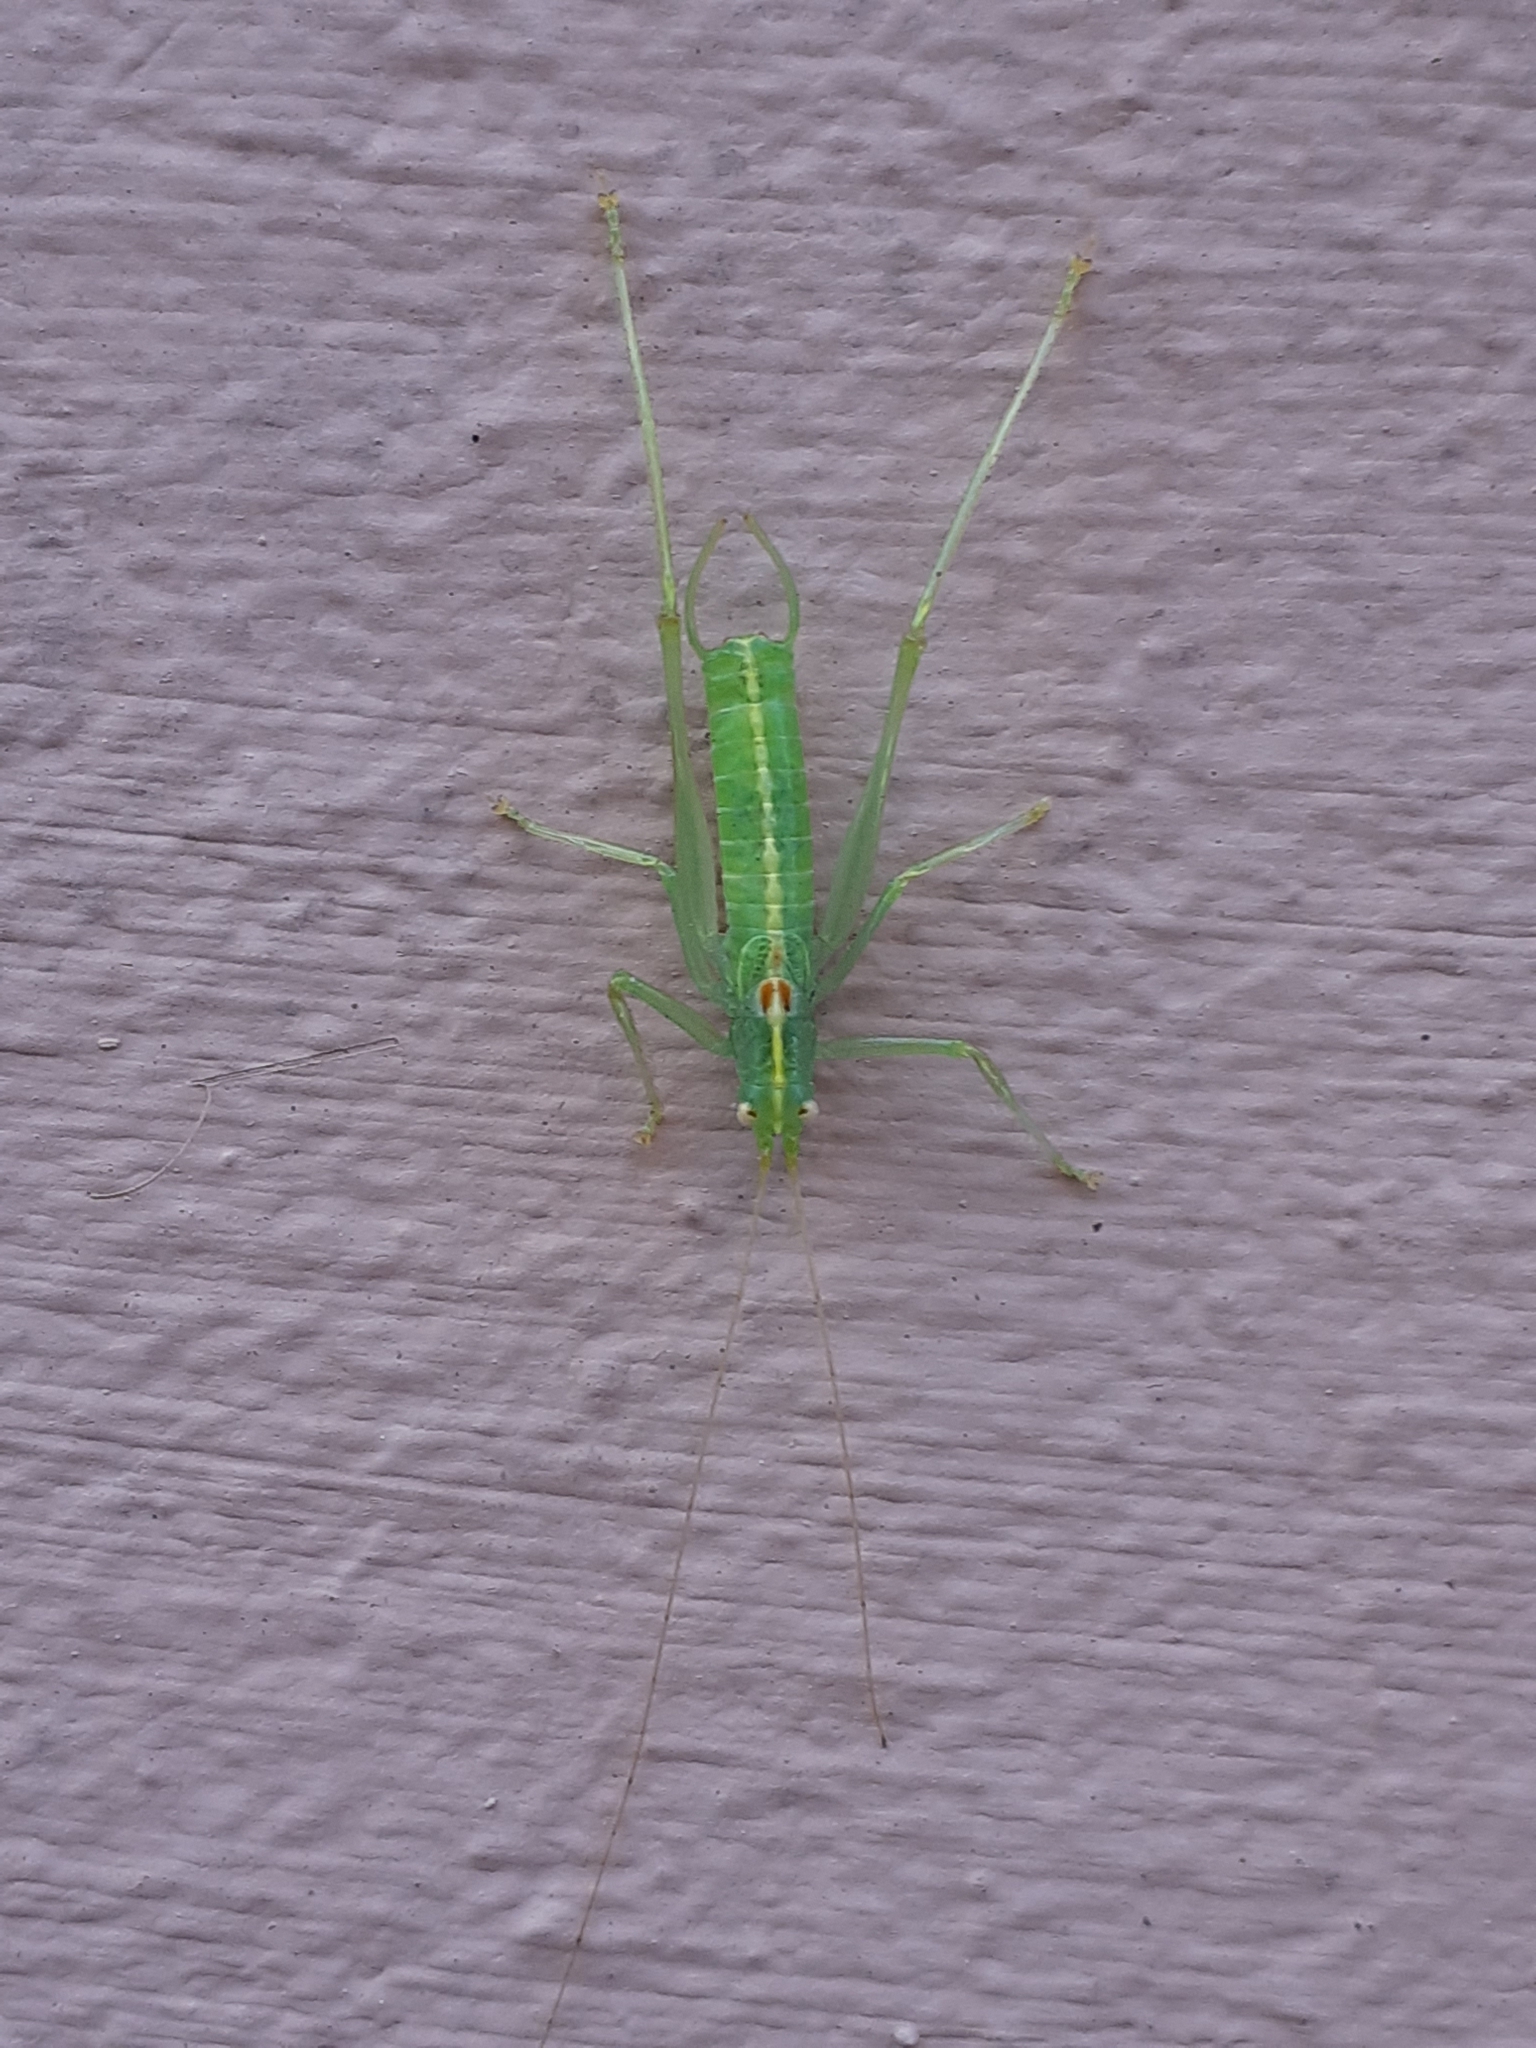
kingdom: Animalia
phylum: Arthropoda
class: Insecta
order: Orthoptera
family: Tettigoniidae
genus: Meconema
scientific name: Meconema meridionale
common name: Southern oak bush-cricket
